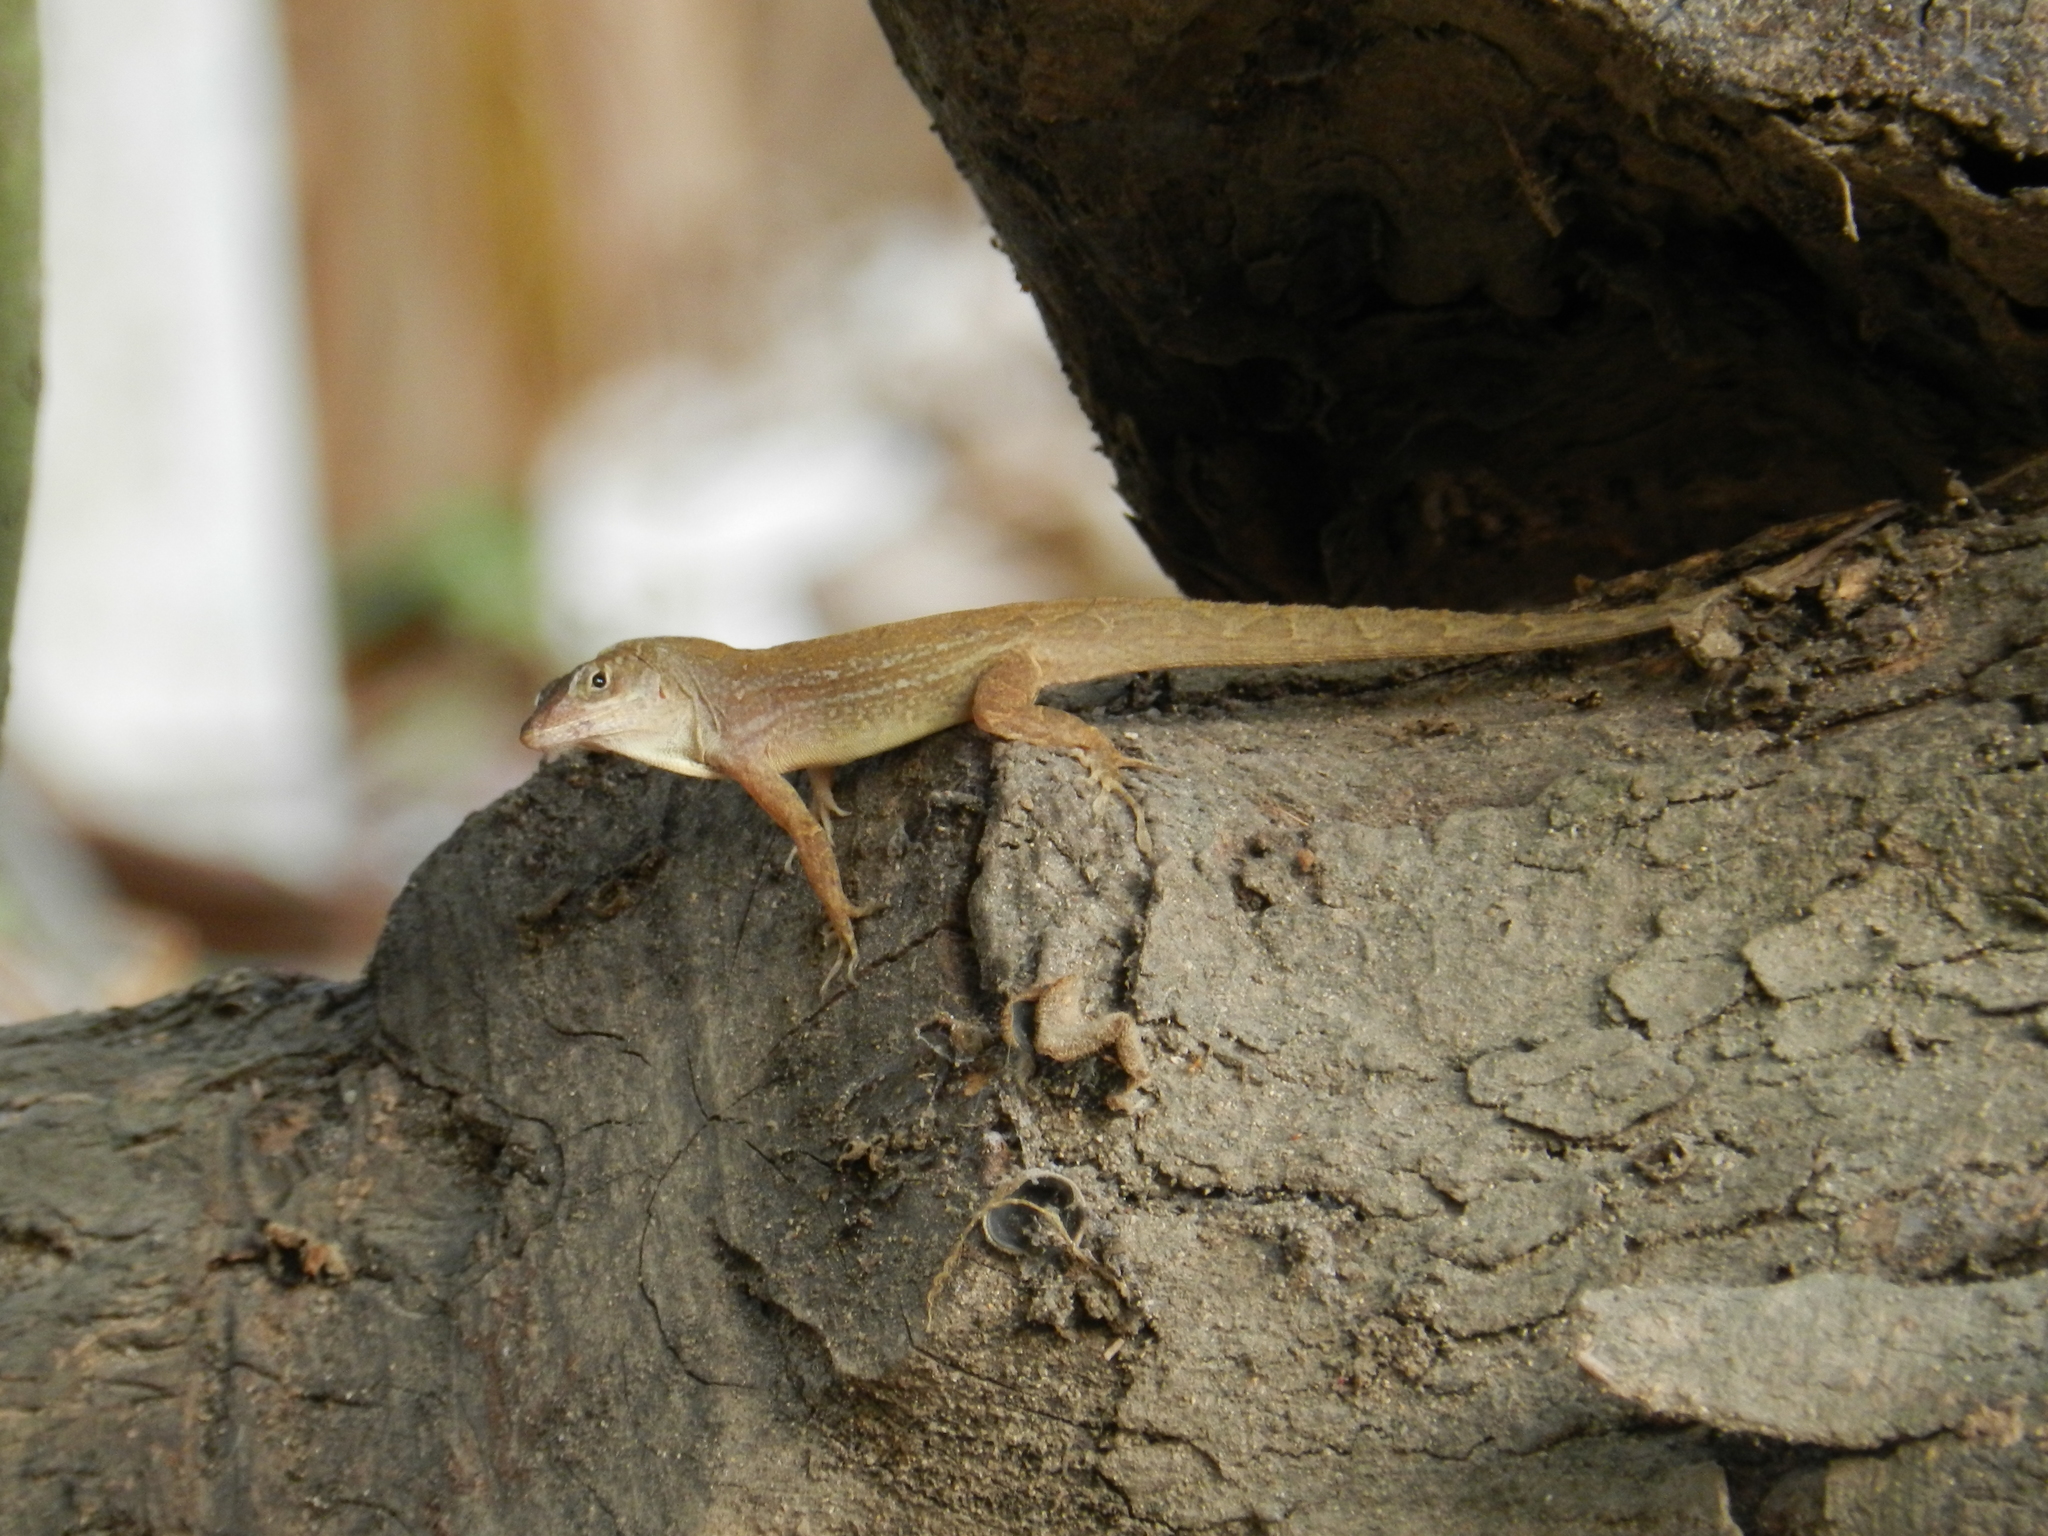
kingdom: Animalia
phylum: Chordata
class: Squamata
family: Dactyloidae
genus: Anolis
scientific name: Anolis sagrei
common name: Brown anole
